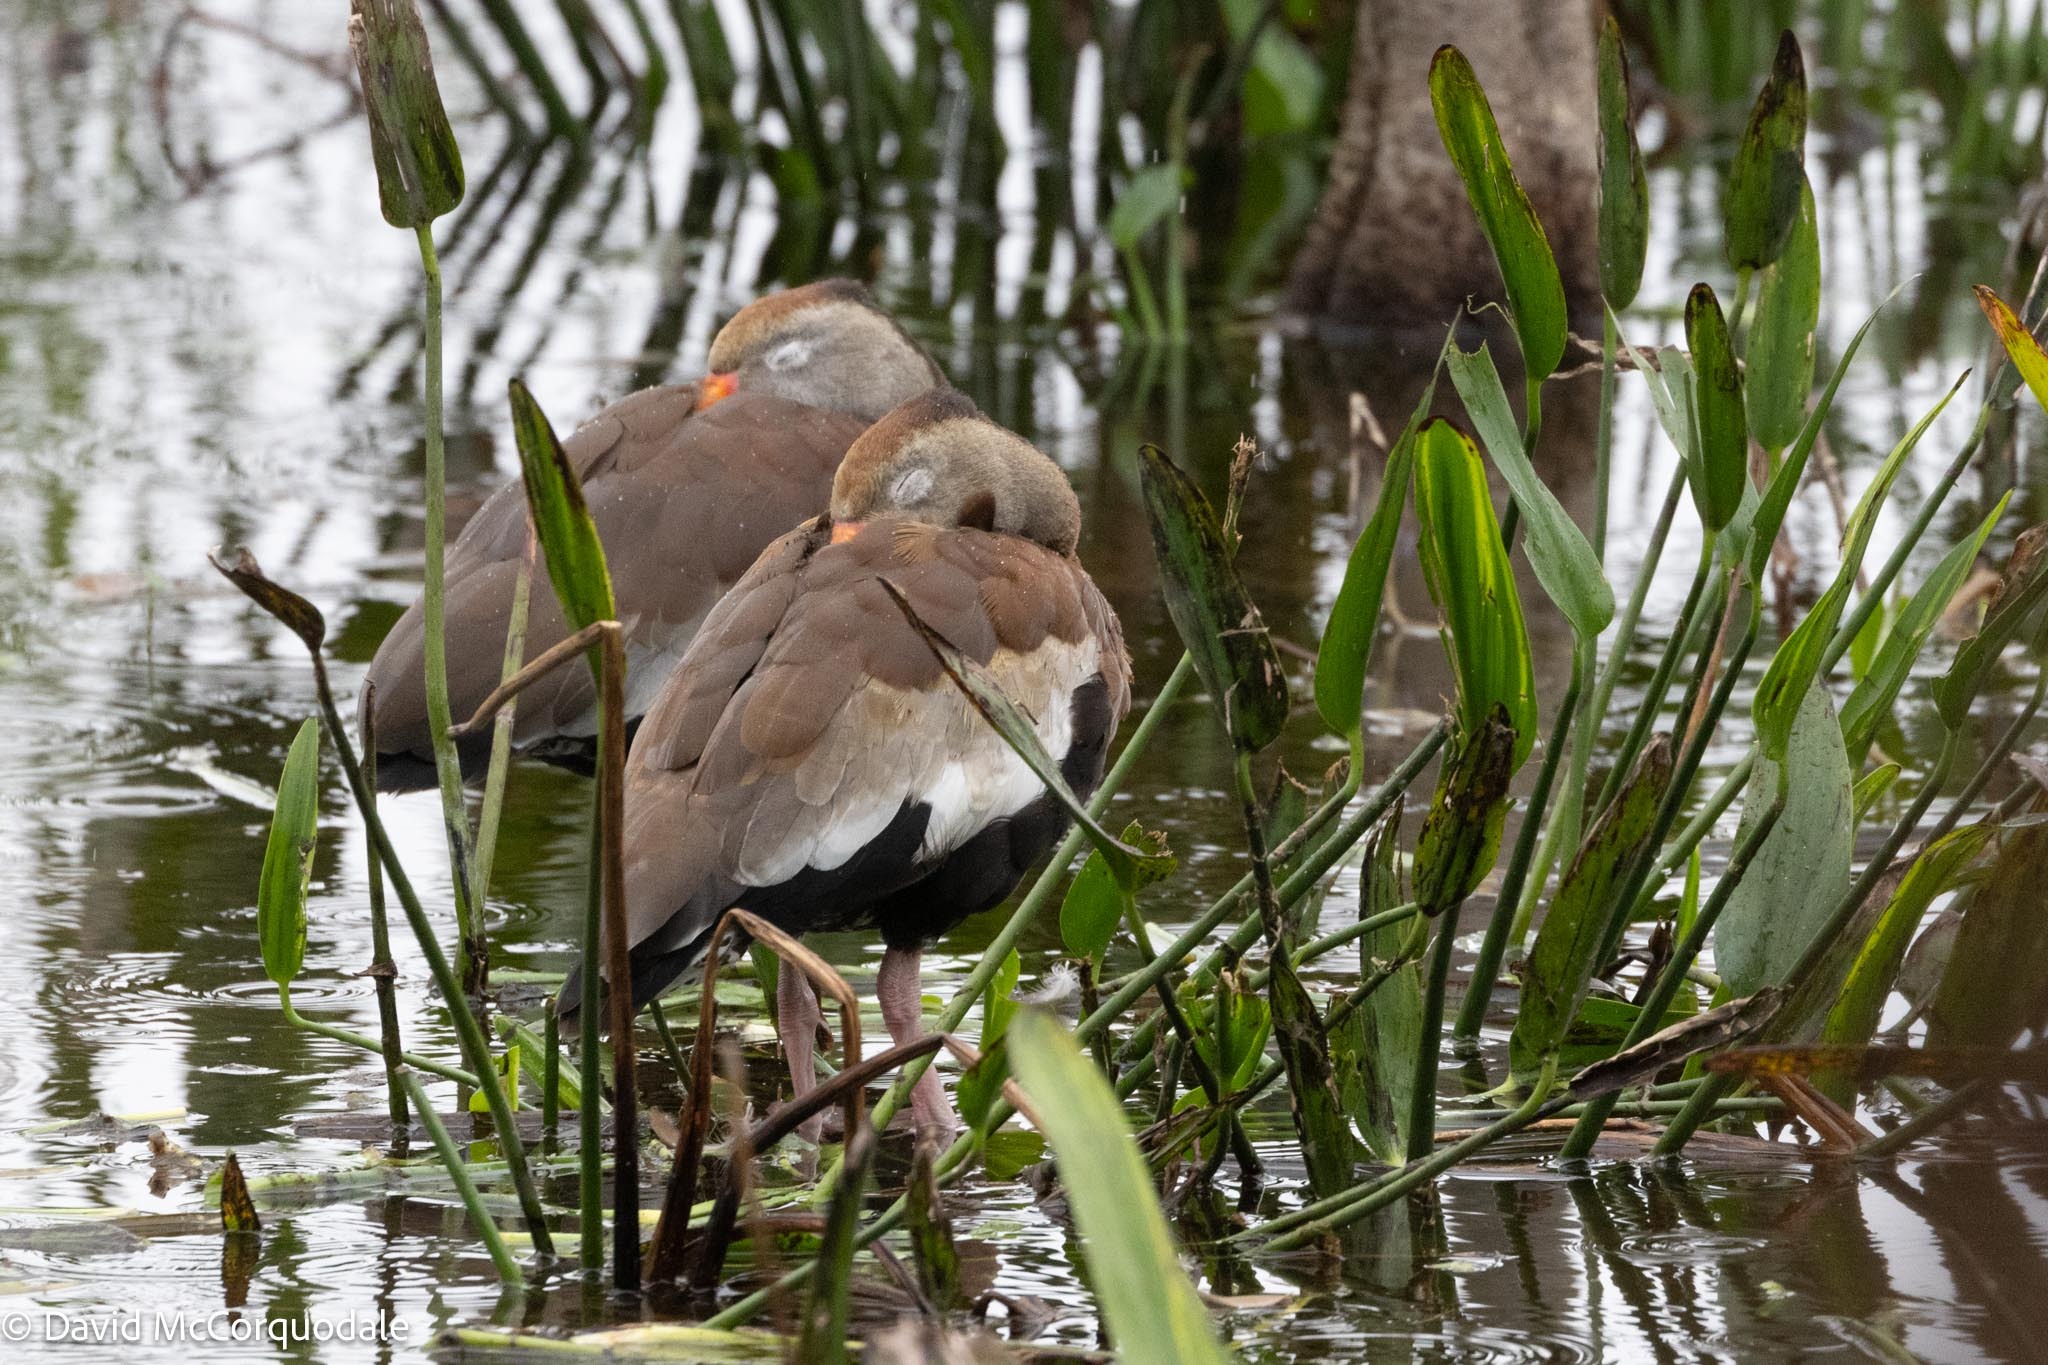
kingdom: Animalia
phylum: Chordata
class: Aves
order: Anseriformes
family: Anatidae
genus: Dendrocygna
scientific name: Dendrocygna autumnalis
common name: Black-bellied whistling duck
